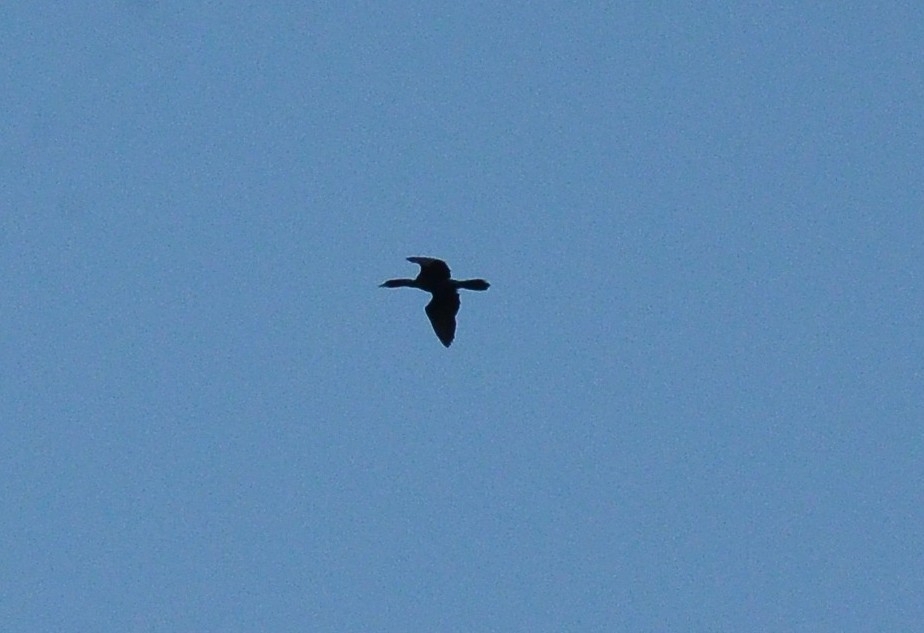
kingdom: Animalia
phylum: Chordata
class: Aves
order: Suliformes
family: Phalacrocoracidae
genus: Microcarbo
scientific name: Microcarbo niger
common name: Little cormorant
